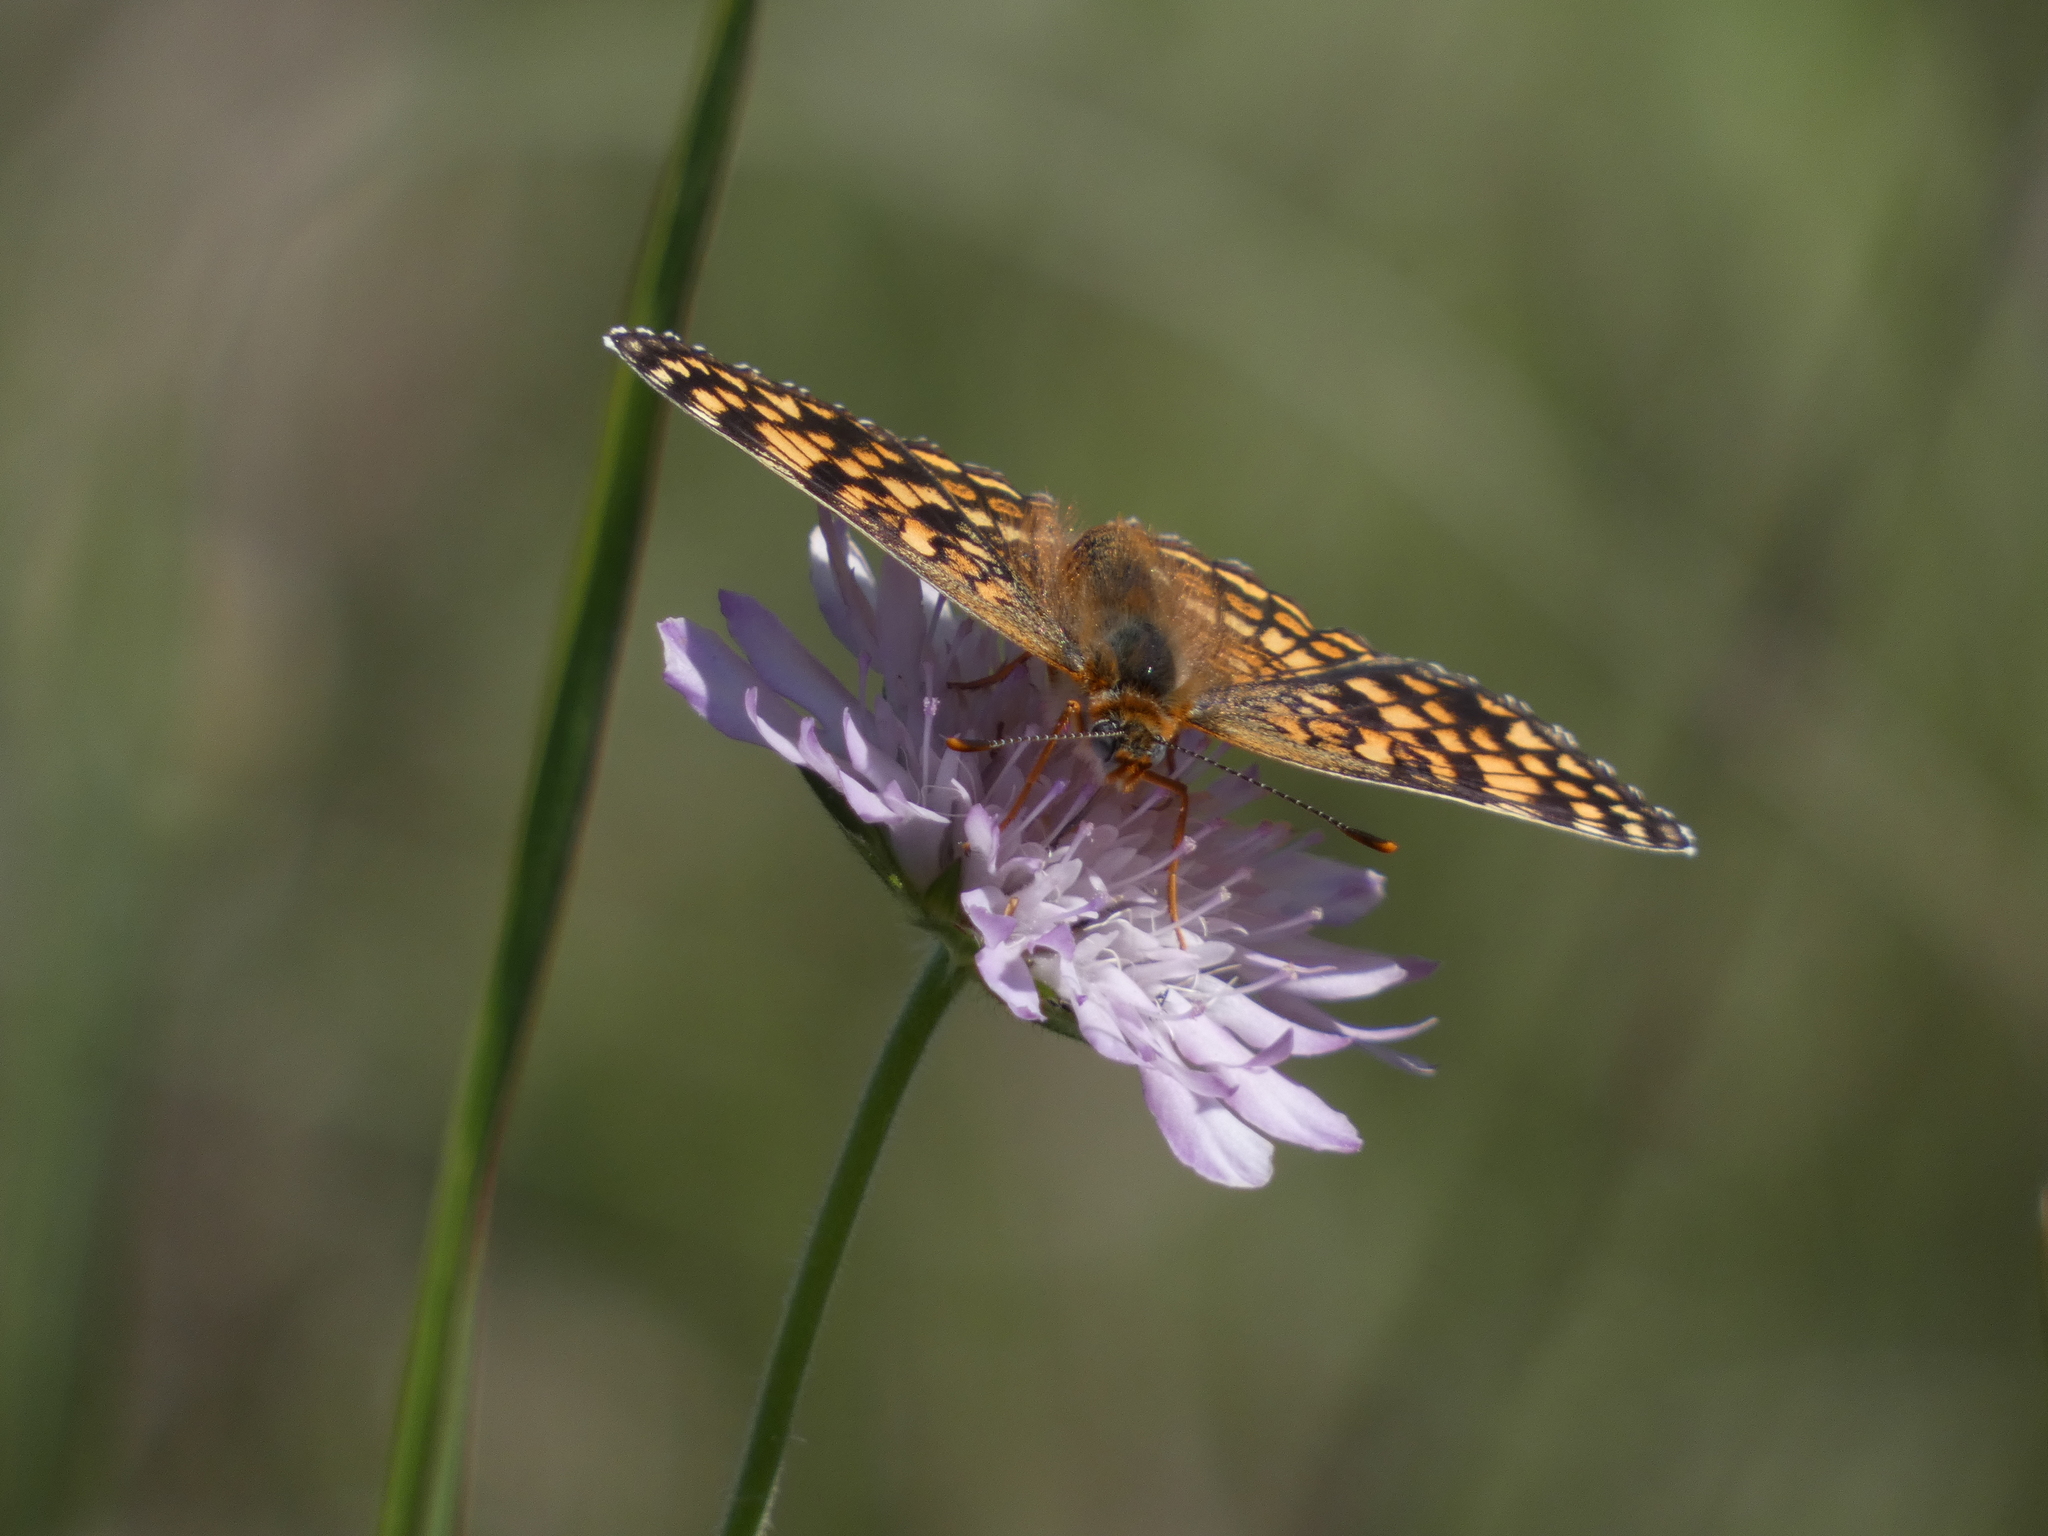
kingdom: Animalia
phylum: Arthropoda
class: Insecta
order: Lepidoptera
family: Nymphalidae
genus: Melitaea
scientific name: Melitaea phoebe
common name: Knapweed fritillary
